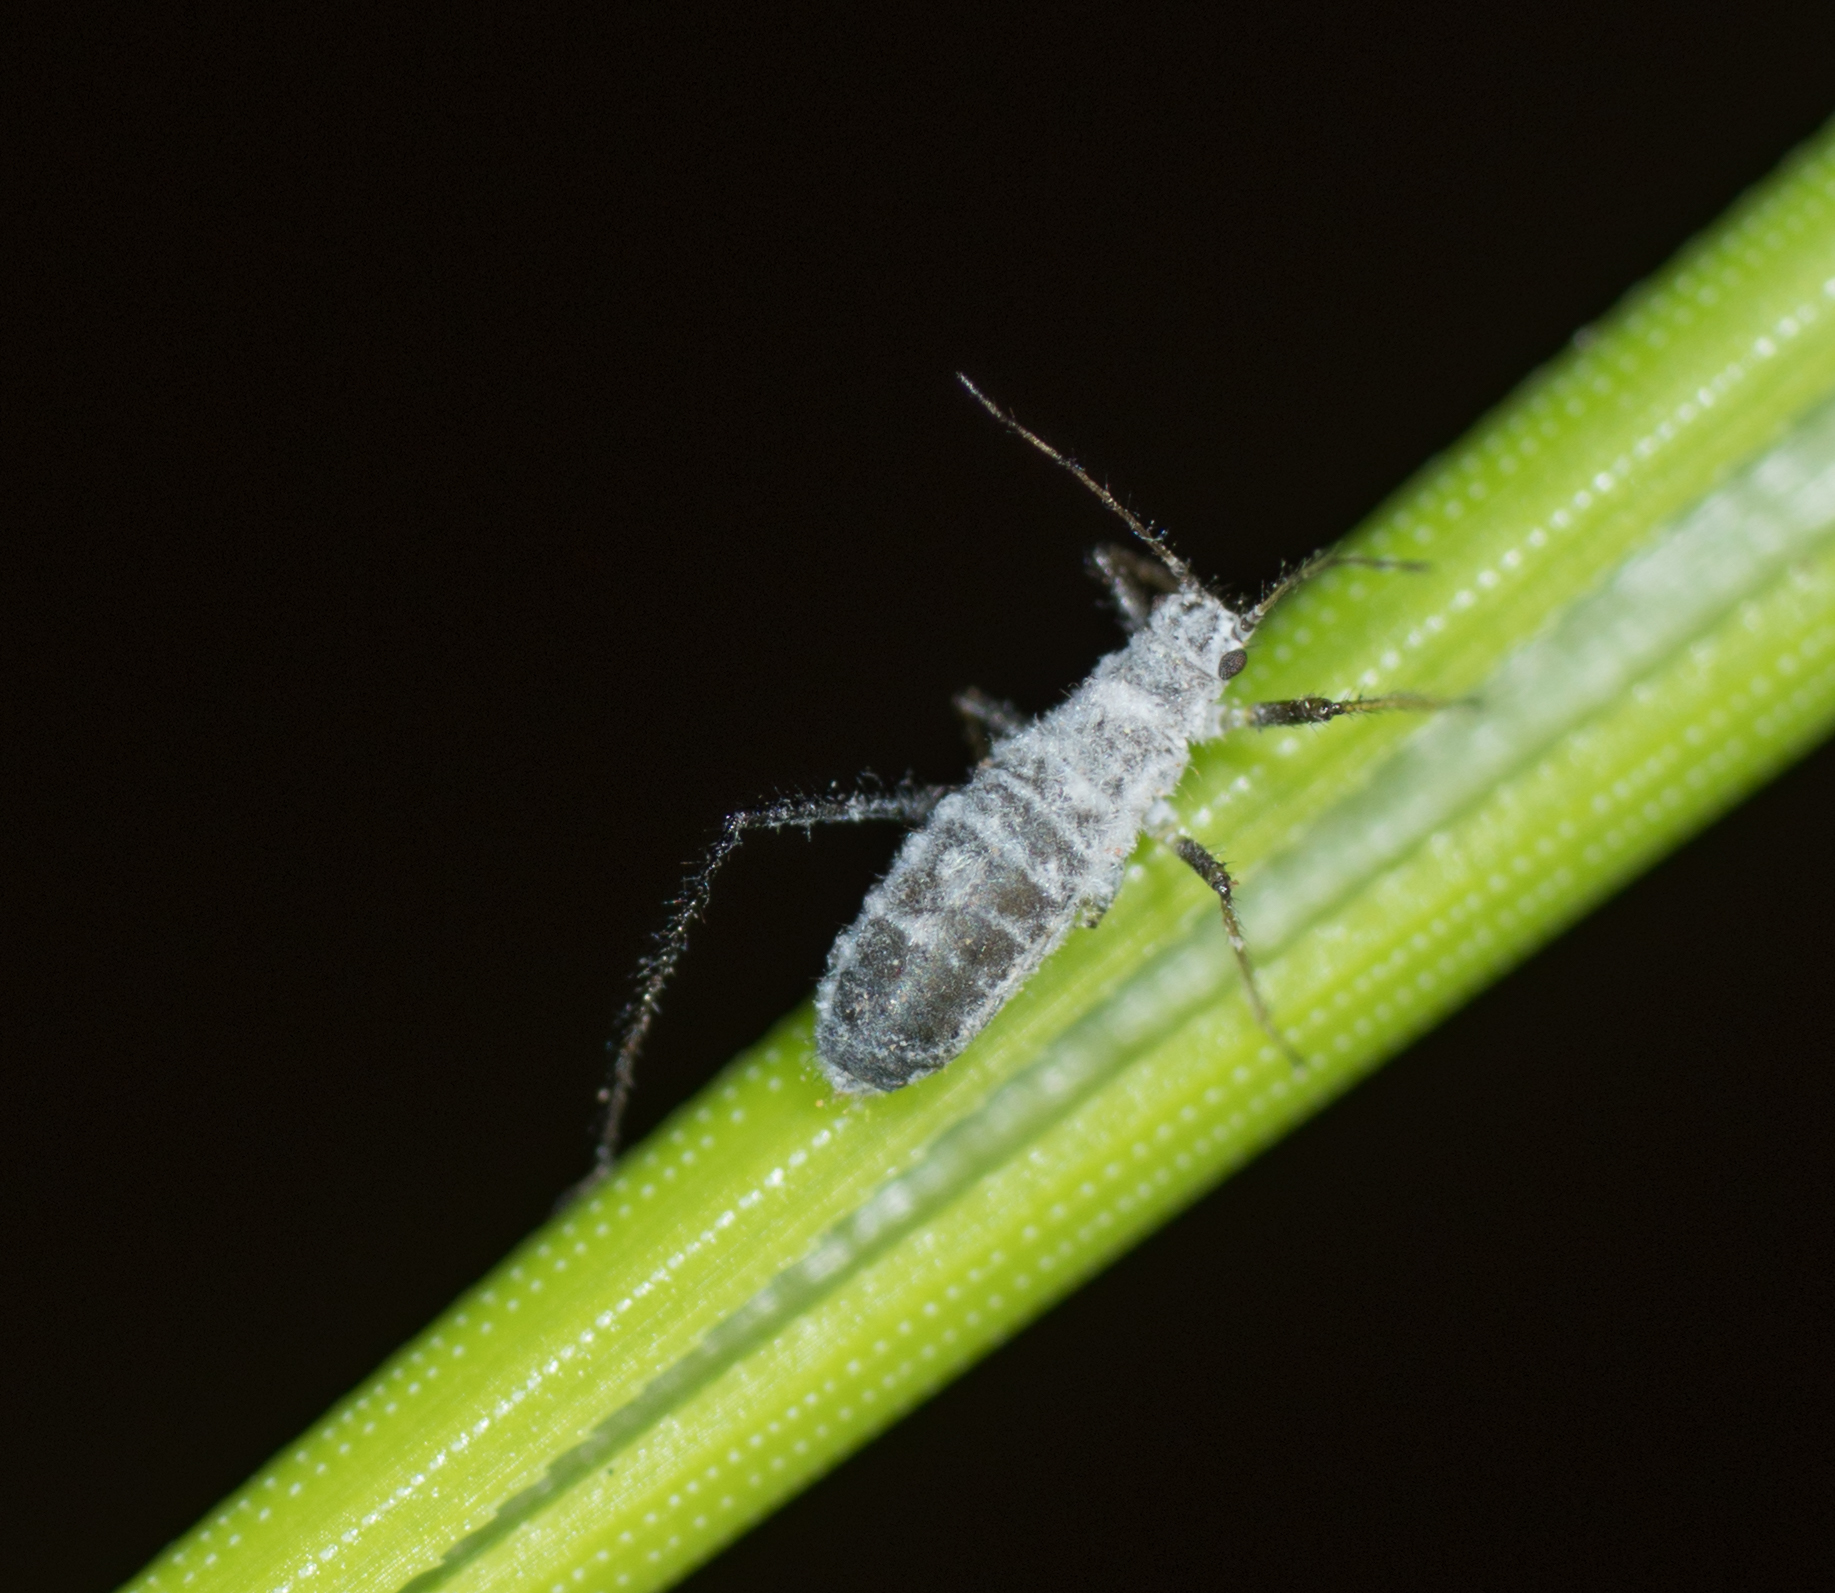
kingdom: Animalia
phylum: Arthropoda
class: Insecta
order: Hemiptera
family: Aphididae
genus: Eulachnus
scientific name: Eulachnus rileyi
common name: Active gray pine needle aphid
